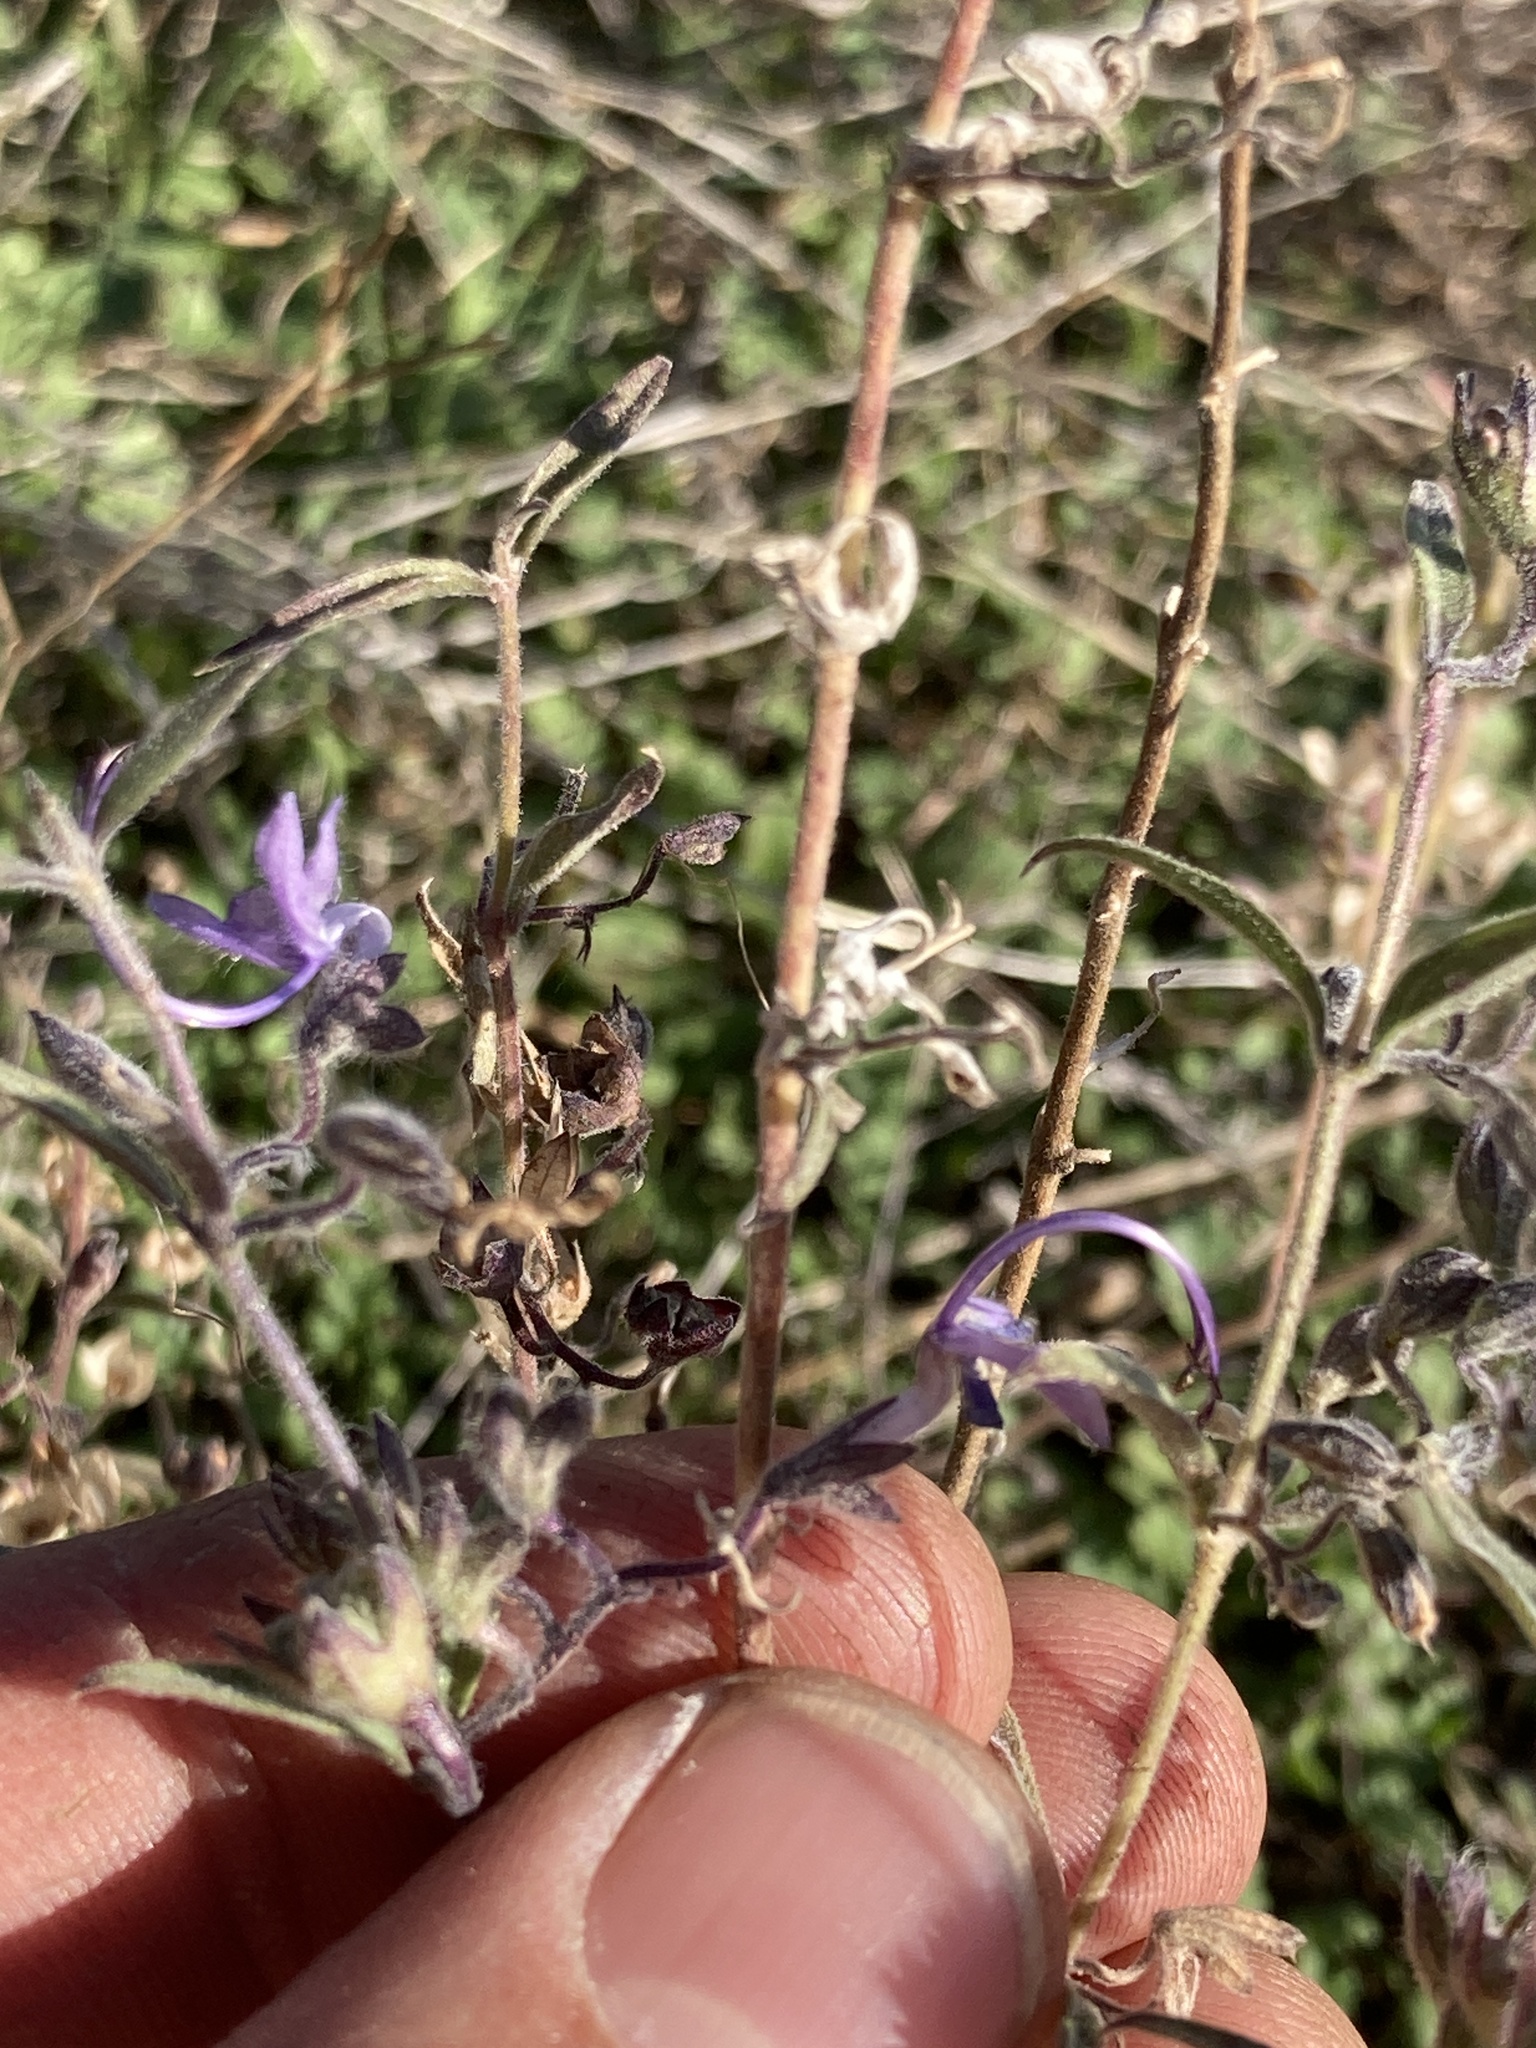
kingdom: Plantae
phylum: Tracheophyta
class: Magnoliopsida
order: Lamiales
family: Lamiaceae
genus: Trichostema
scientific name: Trichostema lanceolatum
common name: Vinegar-weed
